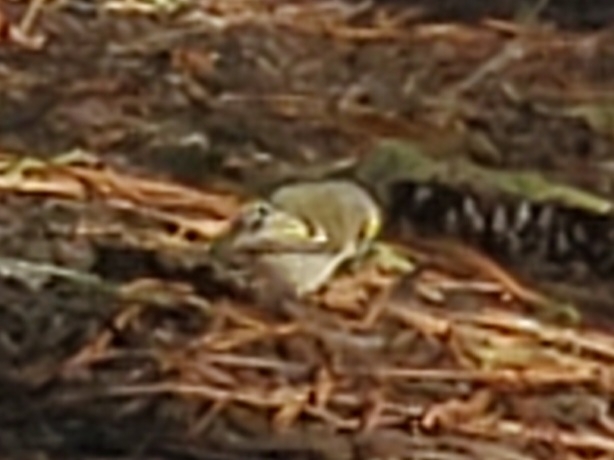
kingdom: Animalia
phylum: Chordata
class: Aves
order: Passeriformes
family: Regulidae
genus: Regulus
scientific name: Regulus satrapa
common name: Golden-crowned kinglet
